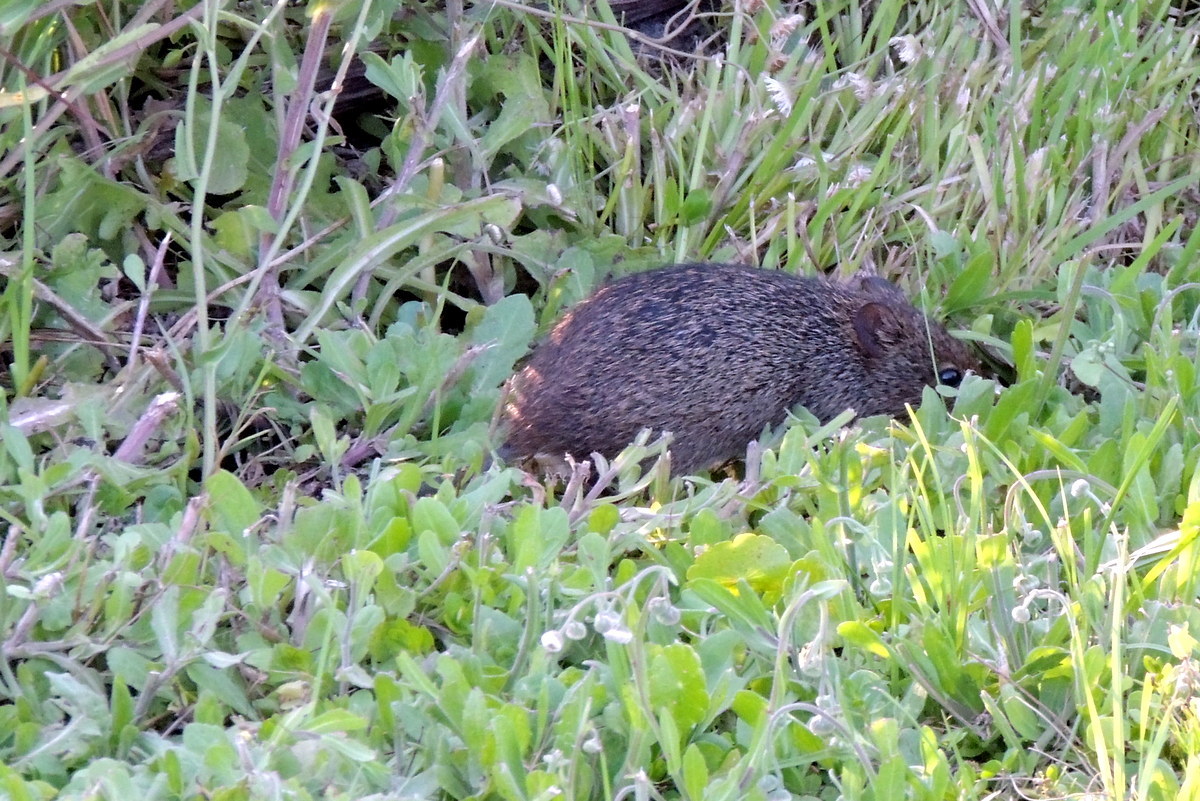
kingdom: Animalia
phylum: Chordata
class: Mammalia
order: Rodentia
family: Cricetidae
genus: Sigmodon
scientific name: Sigmodon hispidus
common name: Hispid cotton rat
